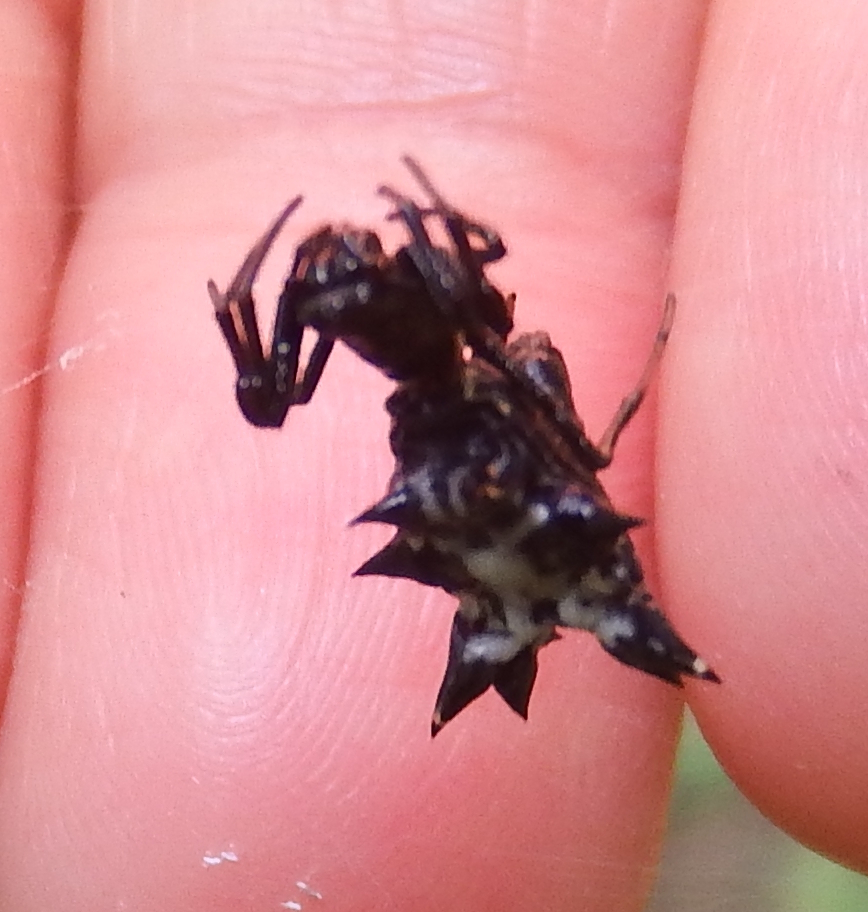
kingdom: Animalia
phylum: Arthropoda
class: Arachnida
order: Araneae
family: Araneidae
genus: Micrathena
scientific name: Micrathena gracilis
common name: Orb weavers
